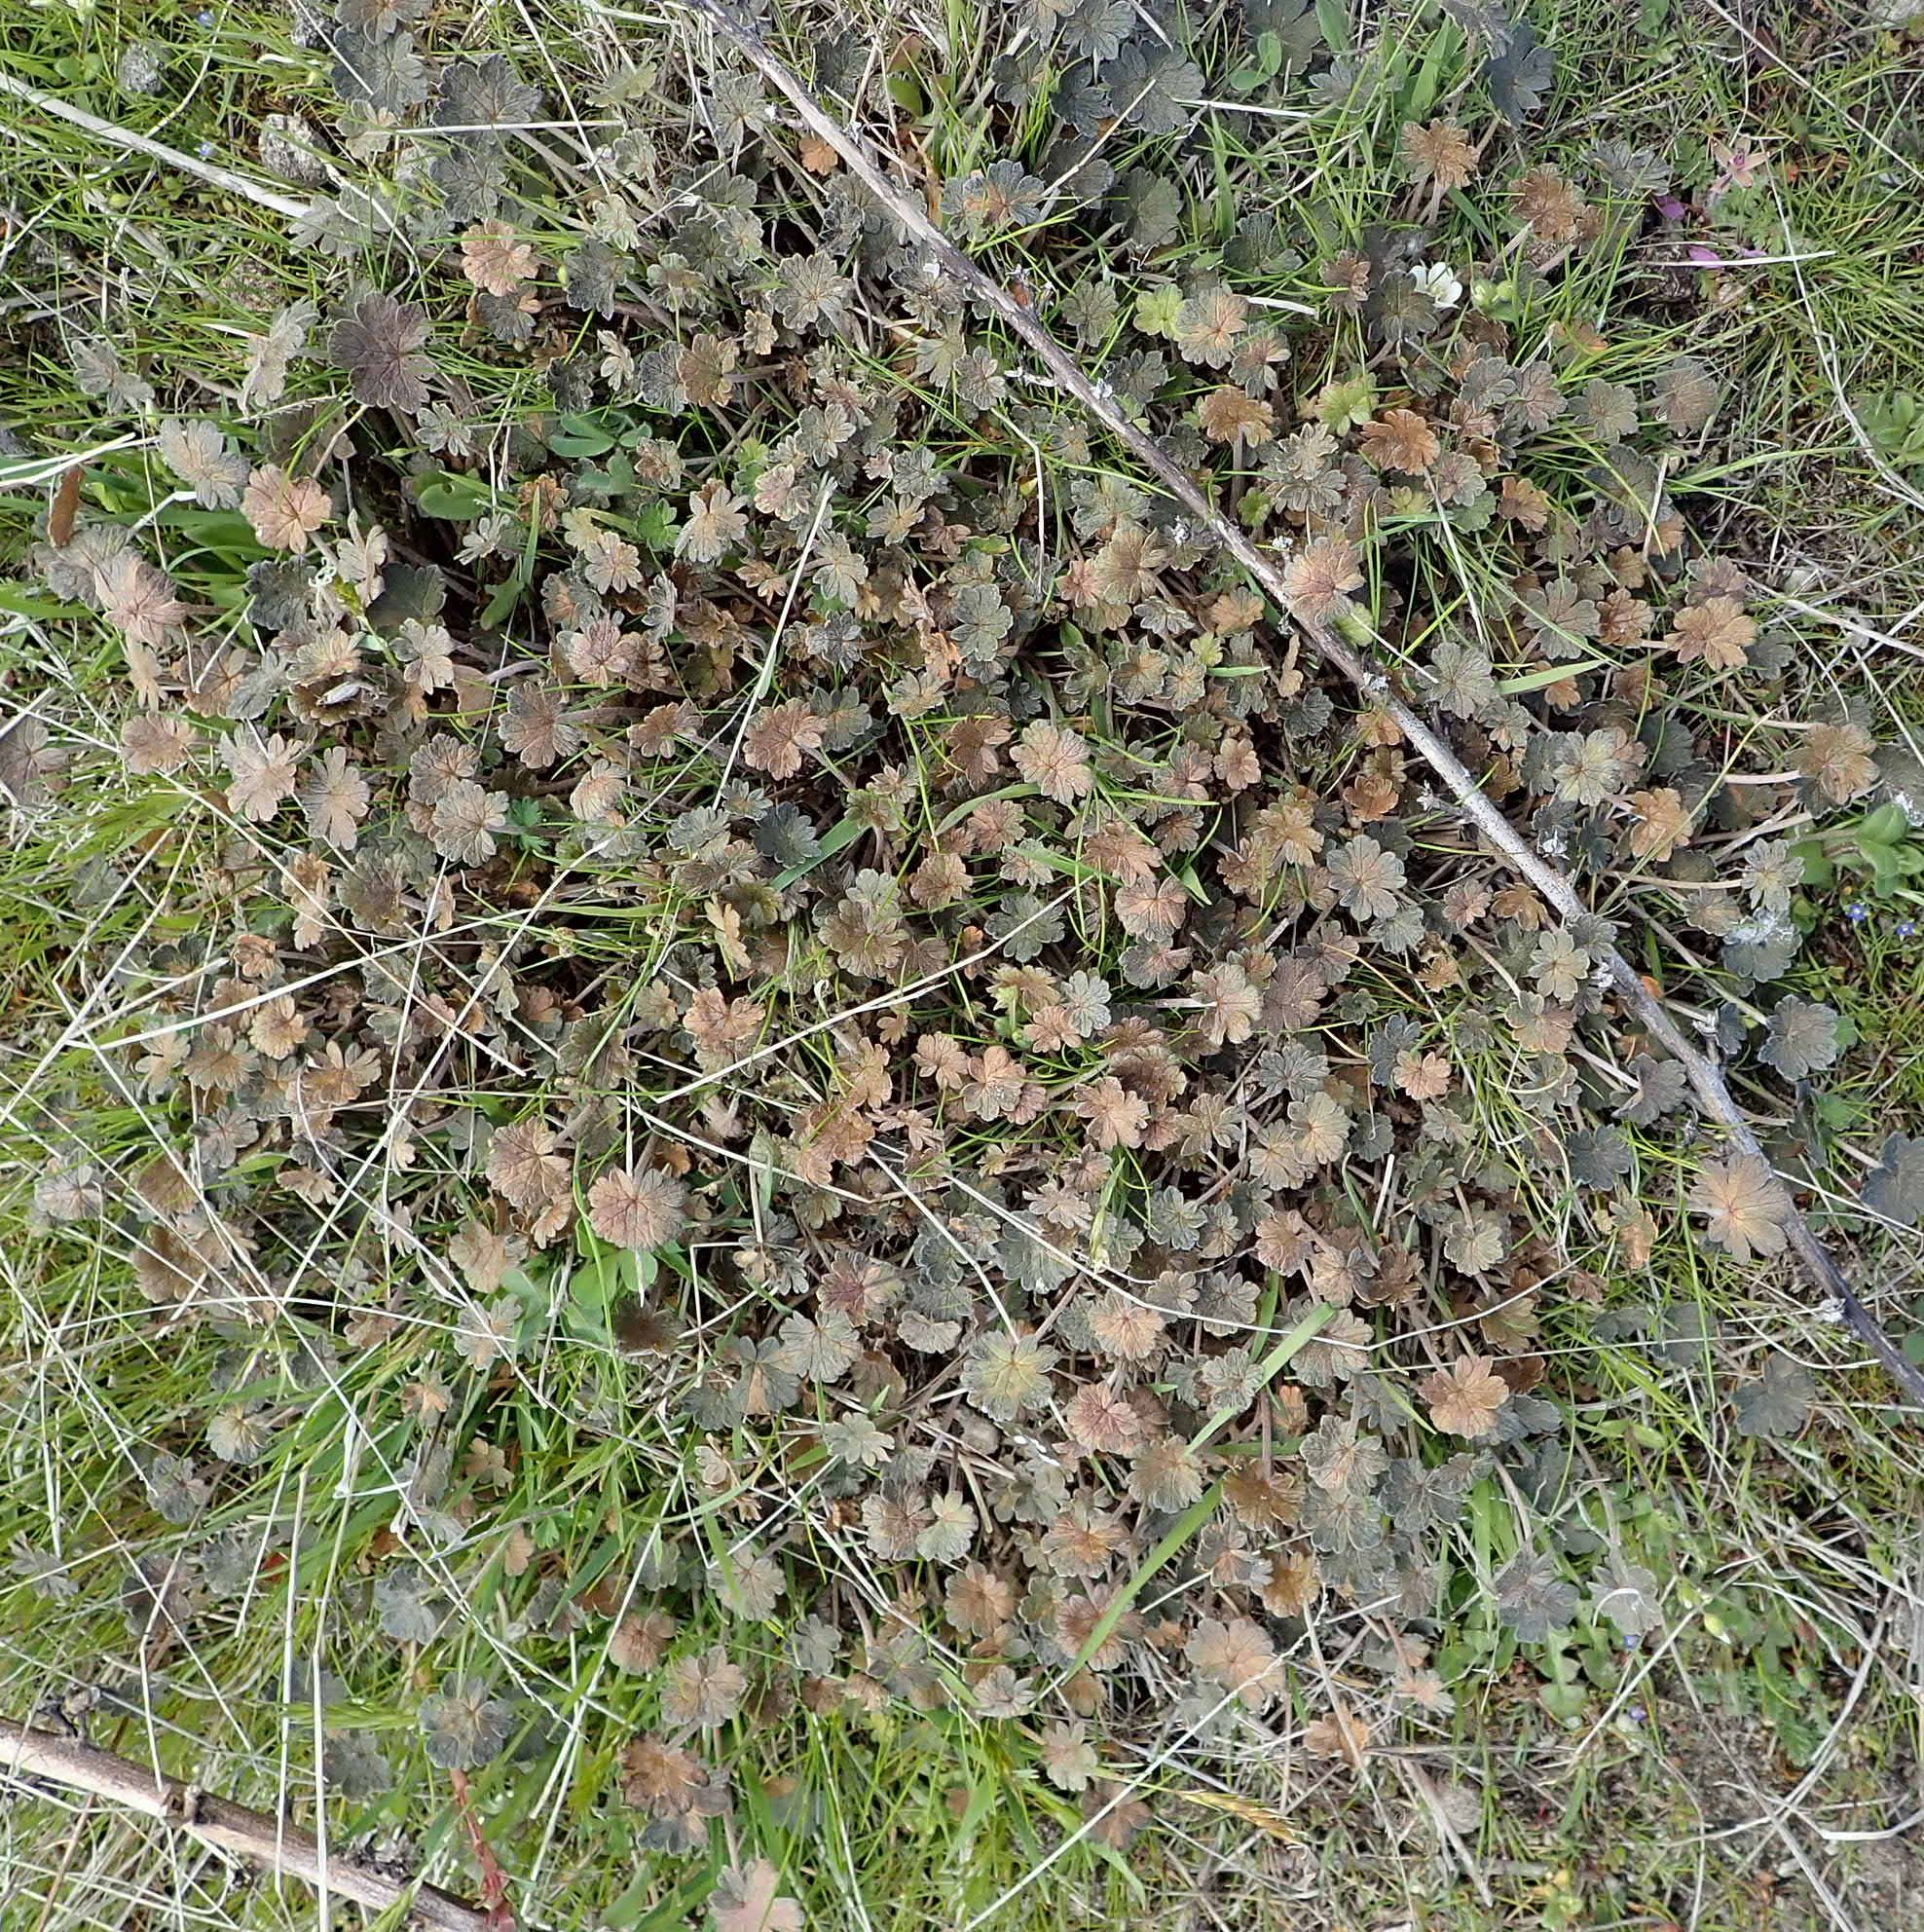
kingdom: Plantae
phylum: Tracheophyta
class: Magnoliopsida
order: Geraniales
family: Geraniaceae
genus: Geranium
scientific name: Geranium brevicaule
